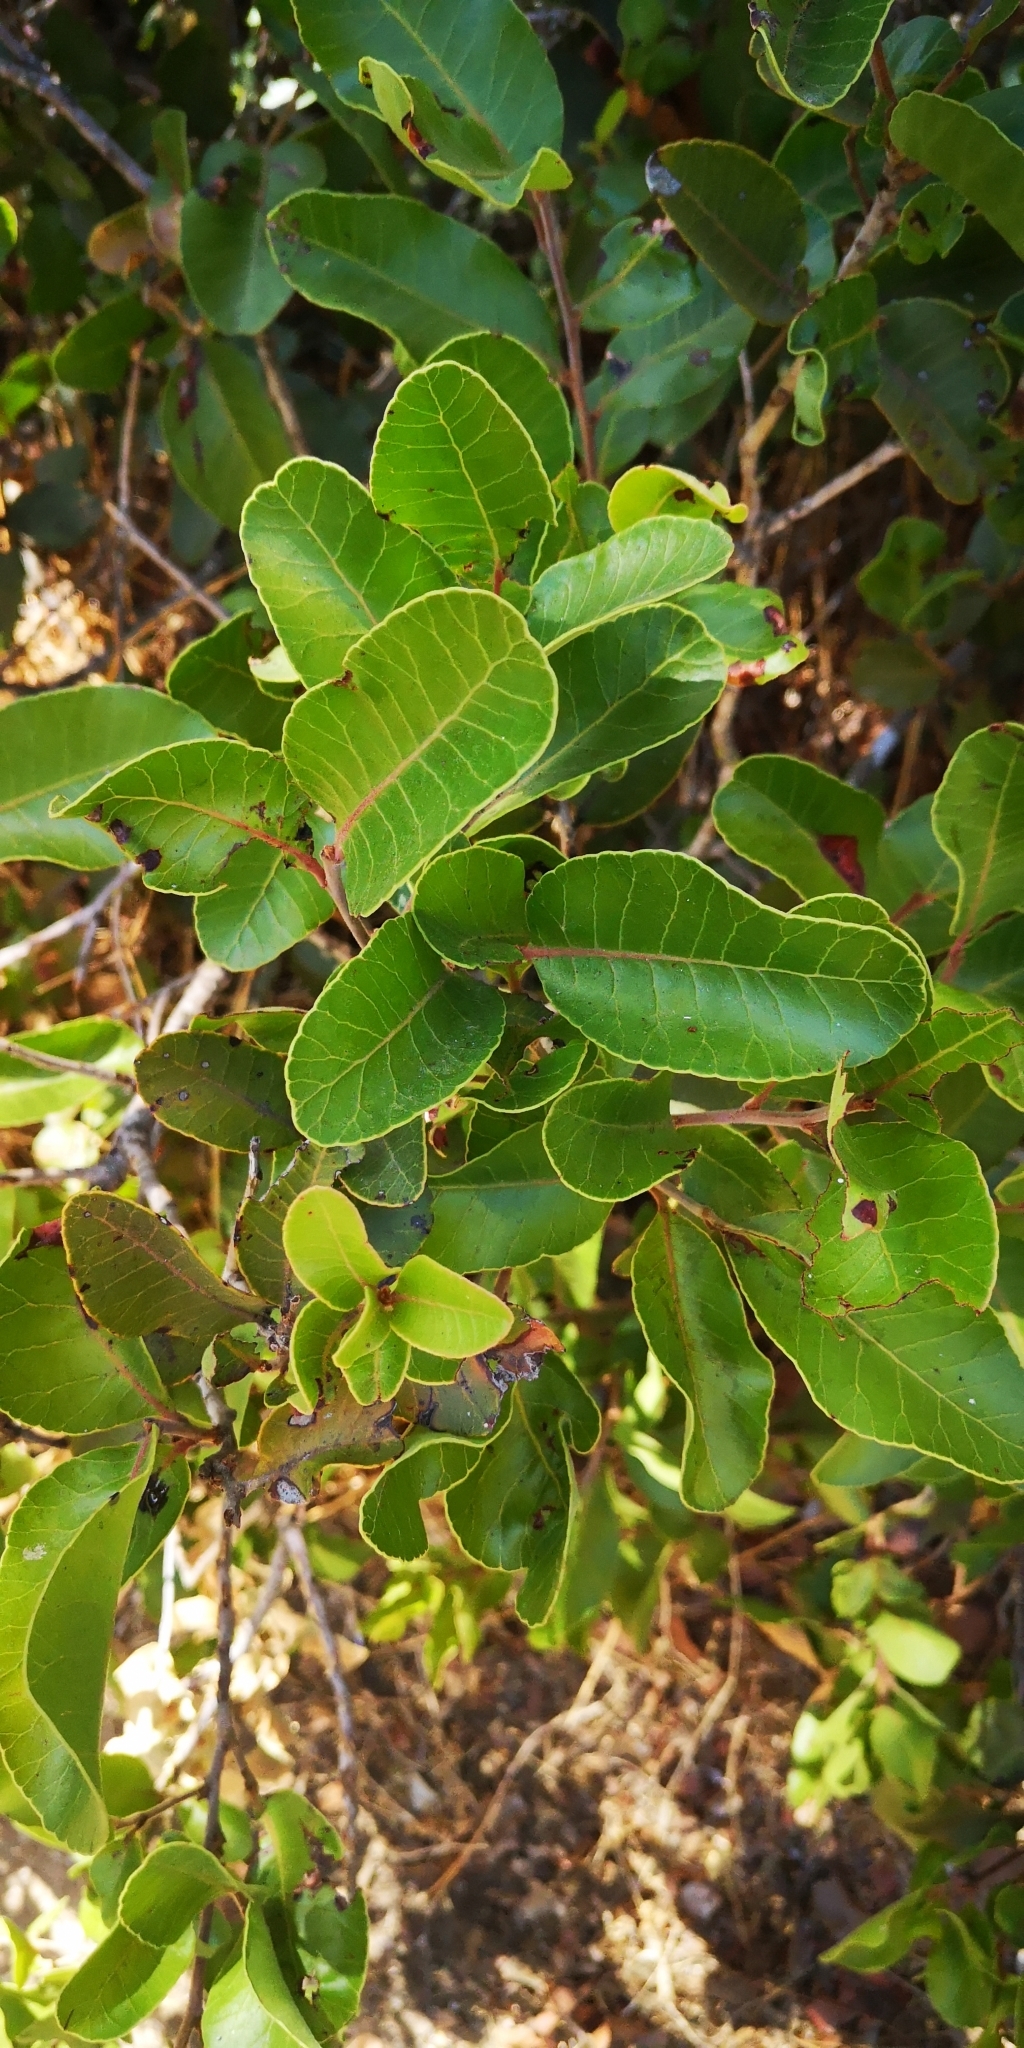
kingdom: Plantae
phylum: Tracheophyta
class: Magnoliopsida
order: Sapindales
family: Anacardiaceae
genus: Lithraea
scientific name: Lithraea caustica
